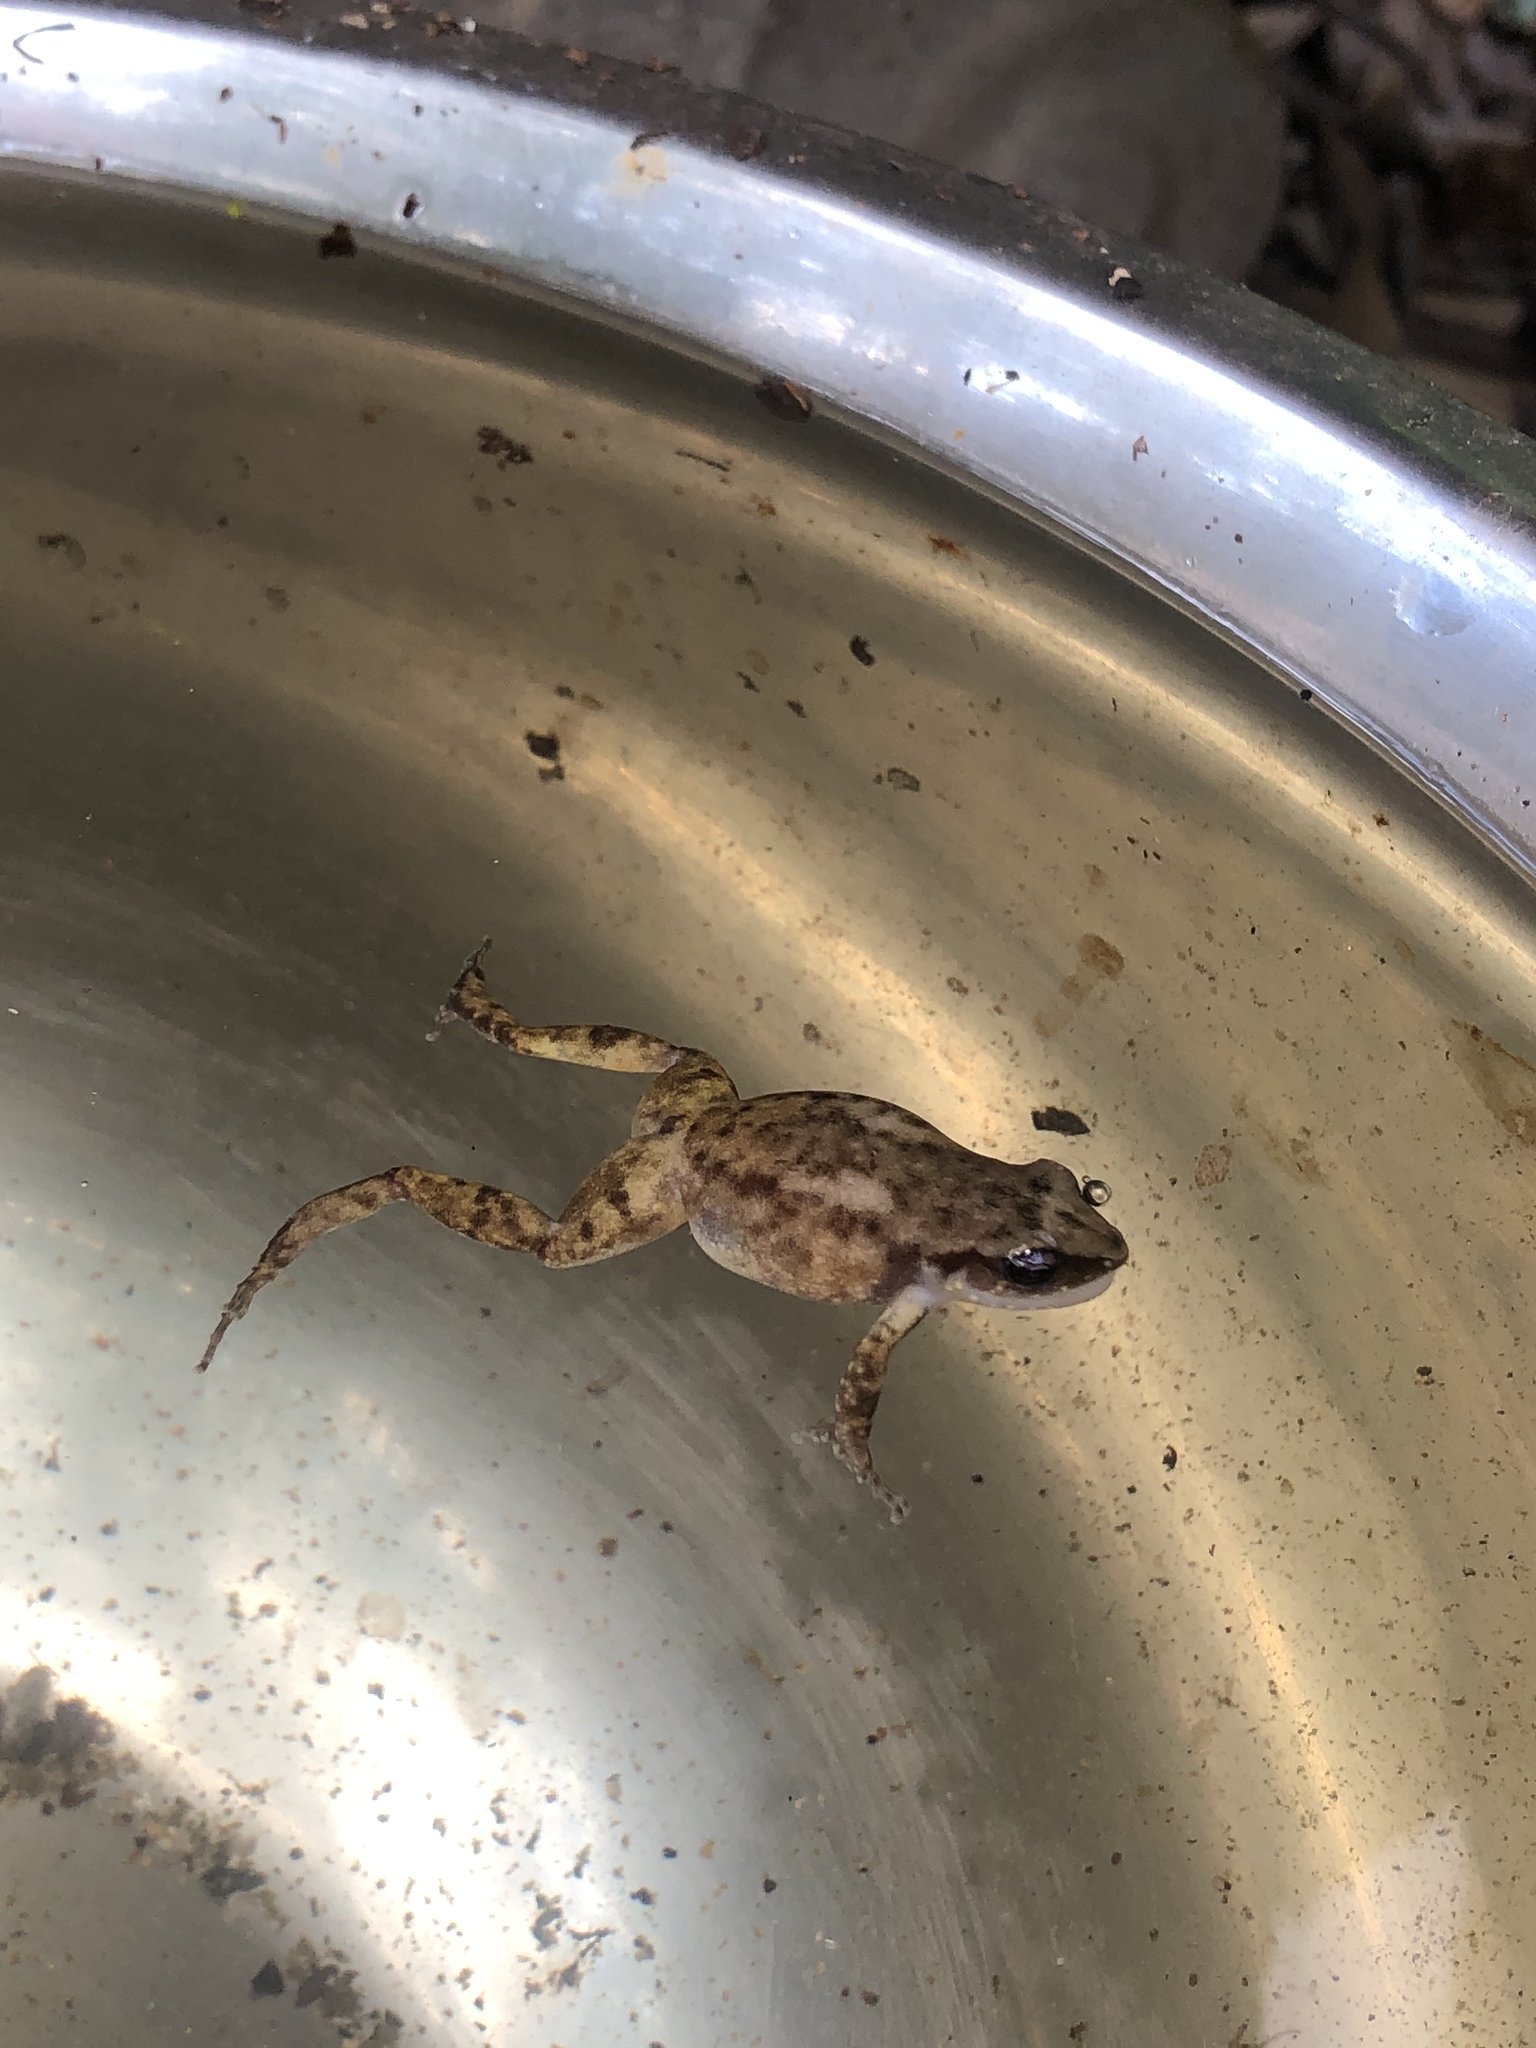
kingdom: Animalia
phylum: Chordata
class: Amphibia
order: Anura
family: Eleutherodactylidae
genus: Eleutherodactylus
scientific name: Eleutherodactylus campi
